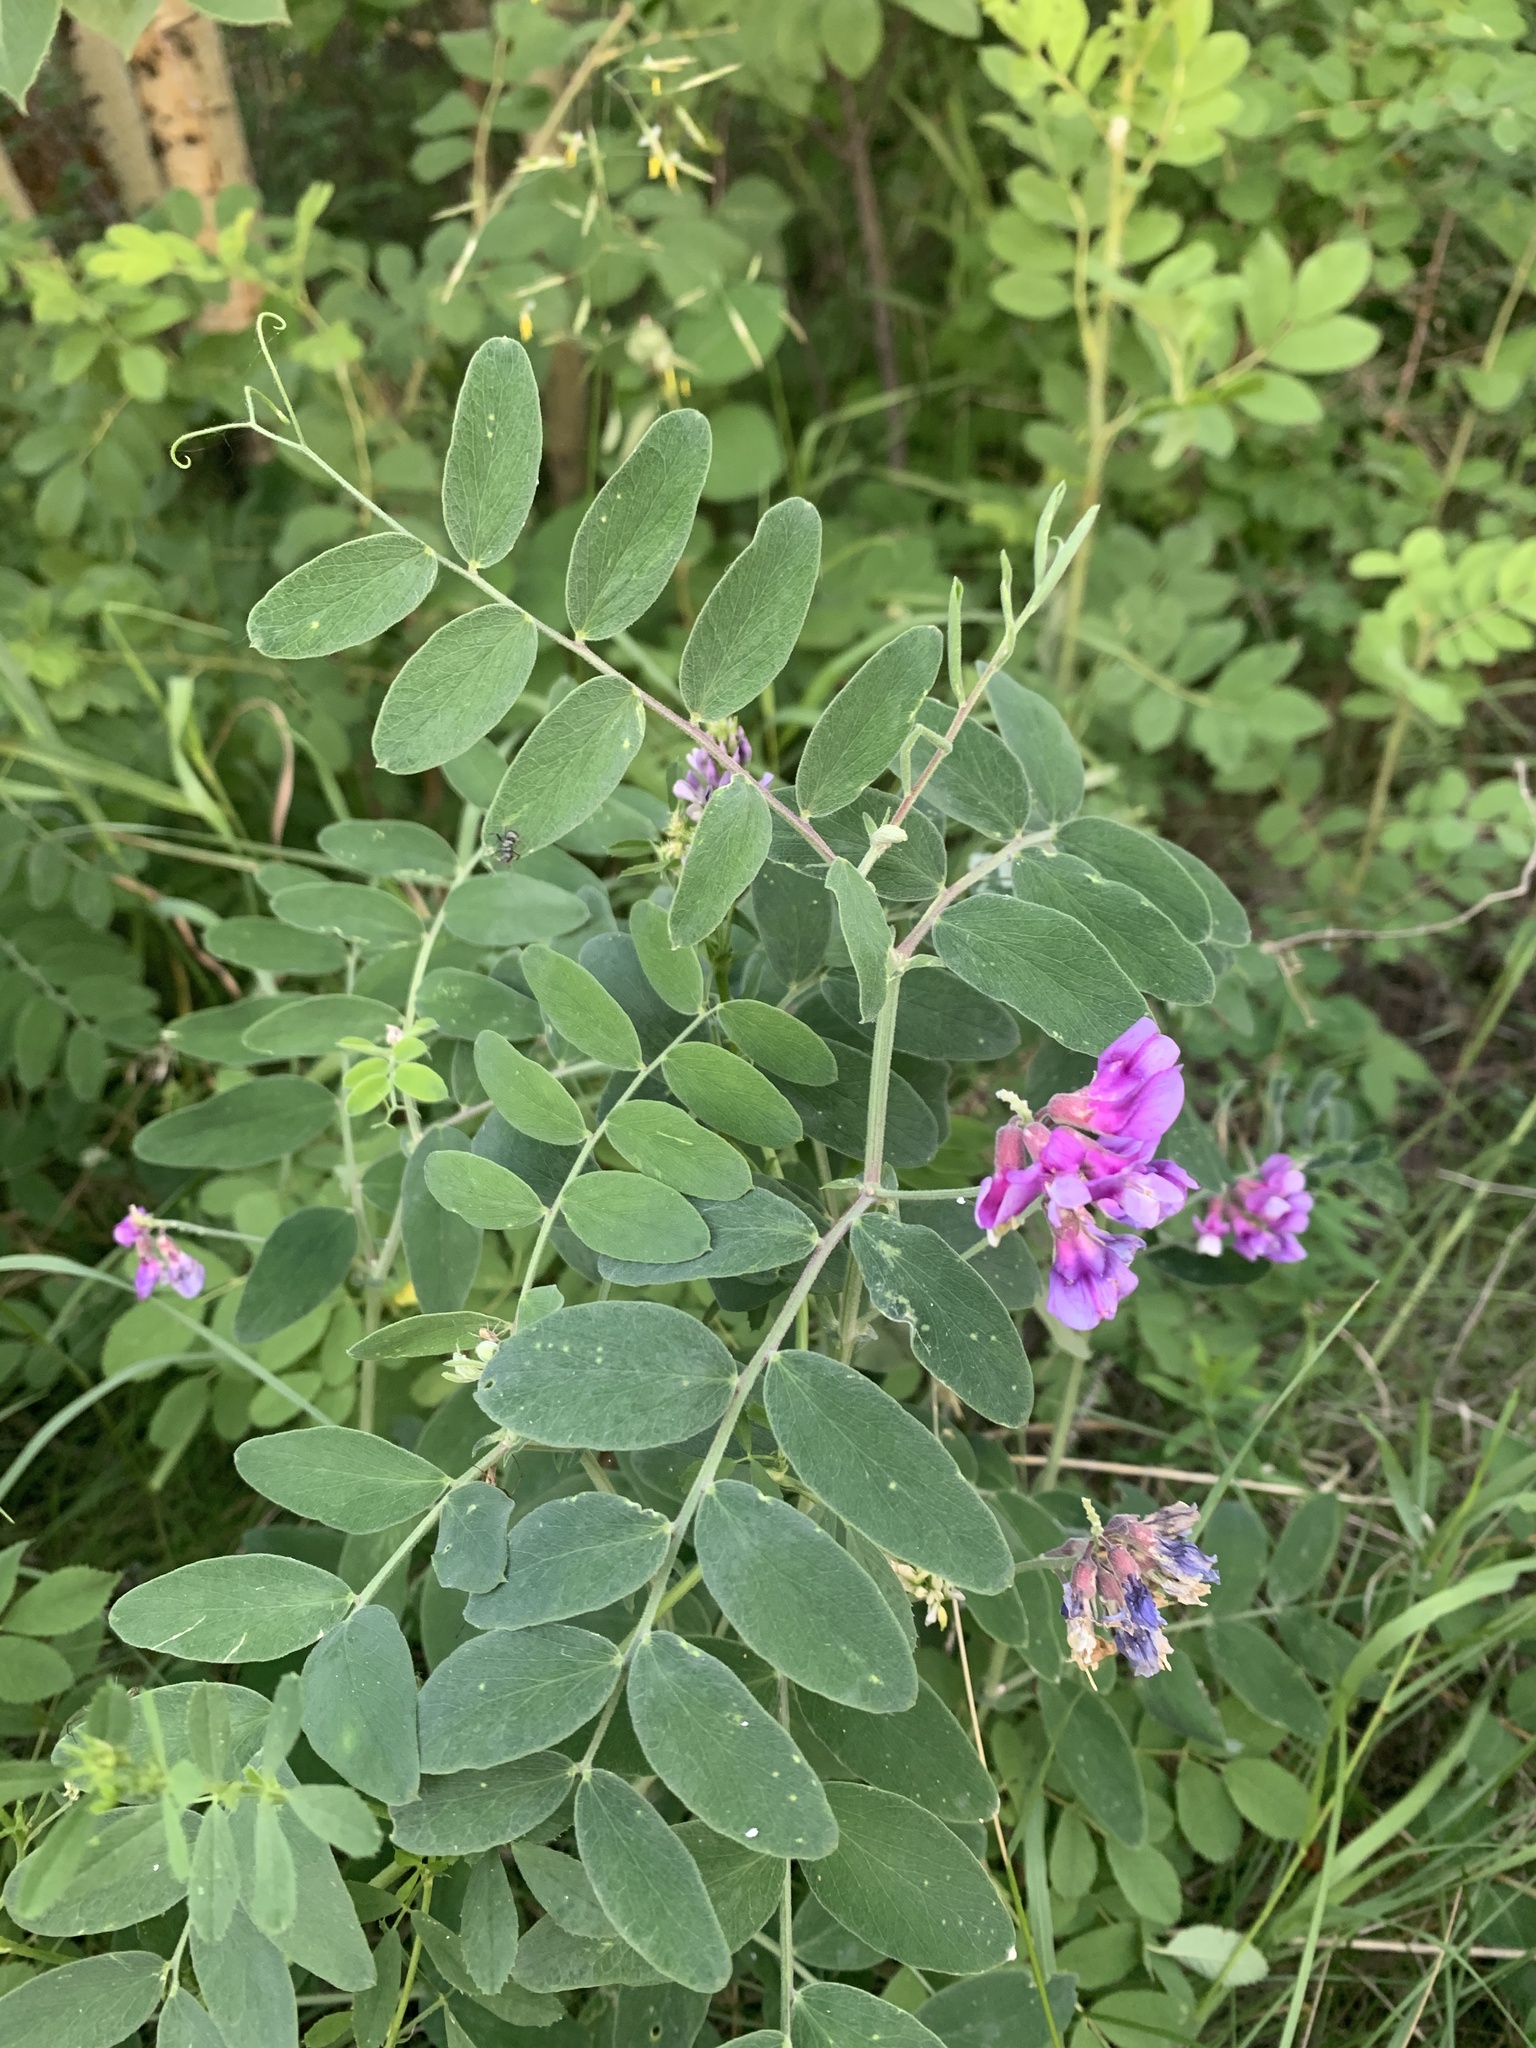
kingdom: Plantae
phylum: Tracheophyta
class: Magnoliopsida
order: Fabales
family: Fabaceae
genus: Lathyrus
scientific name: Lathyrus venosus
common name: Forest-pea
